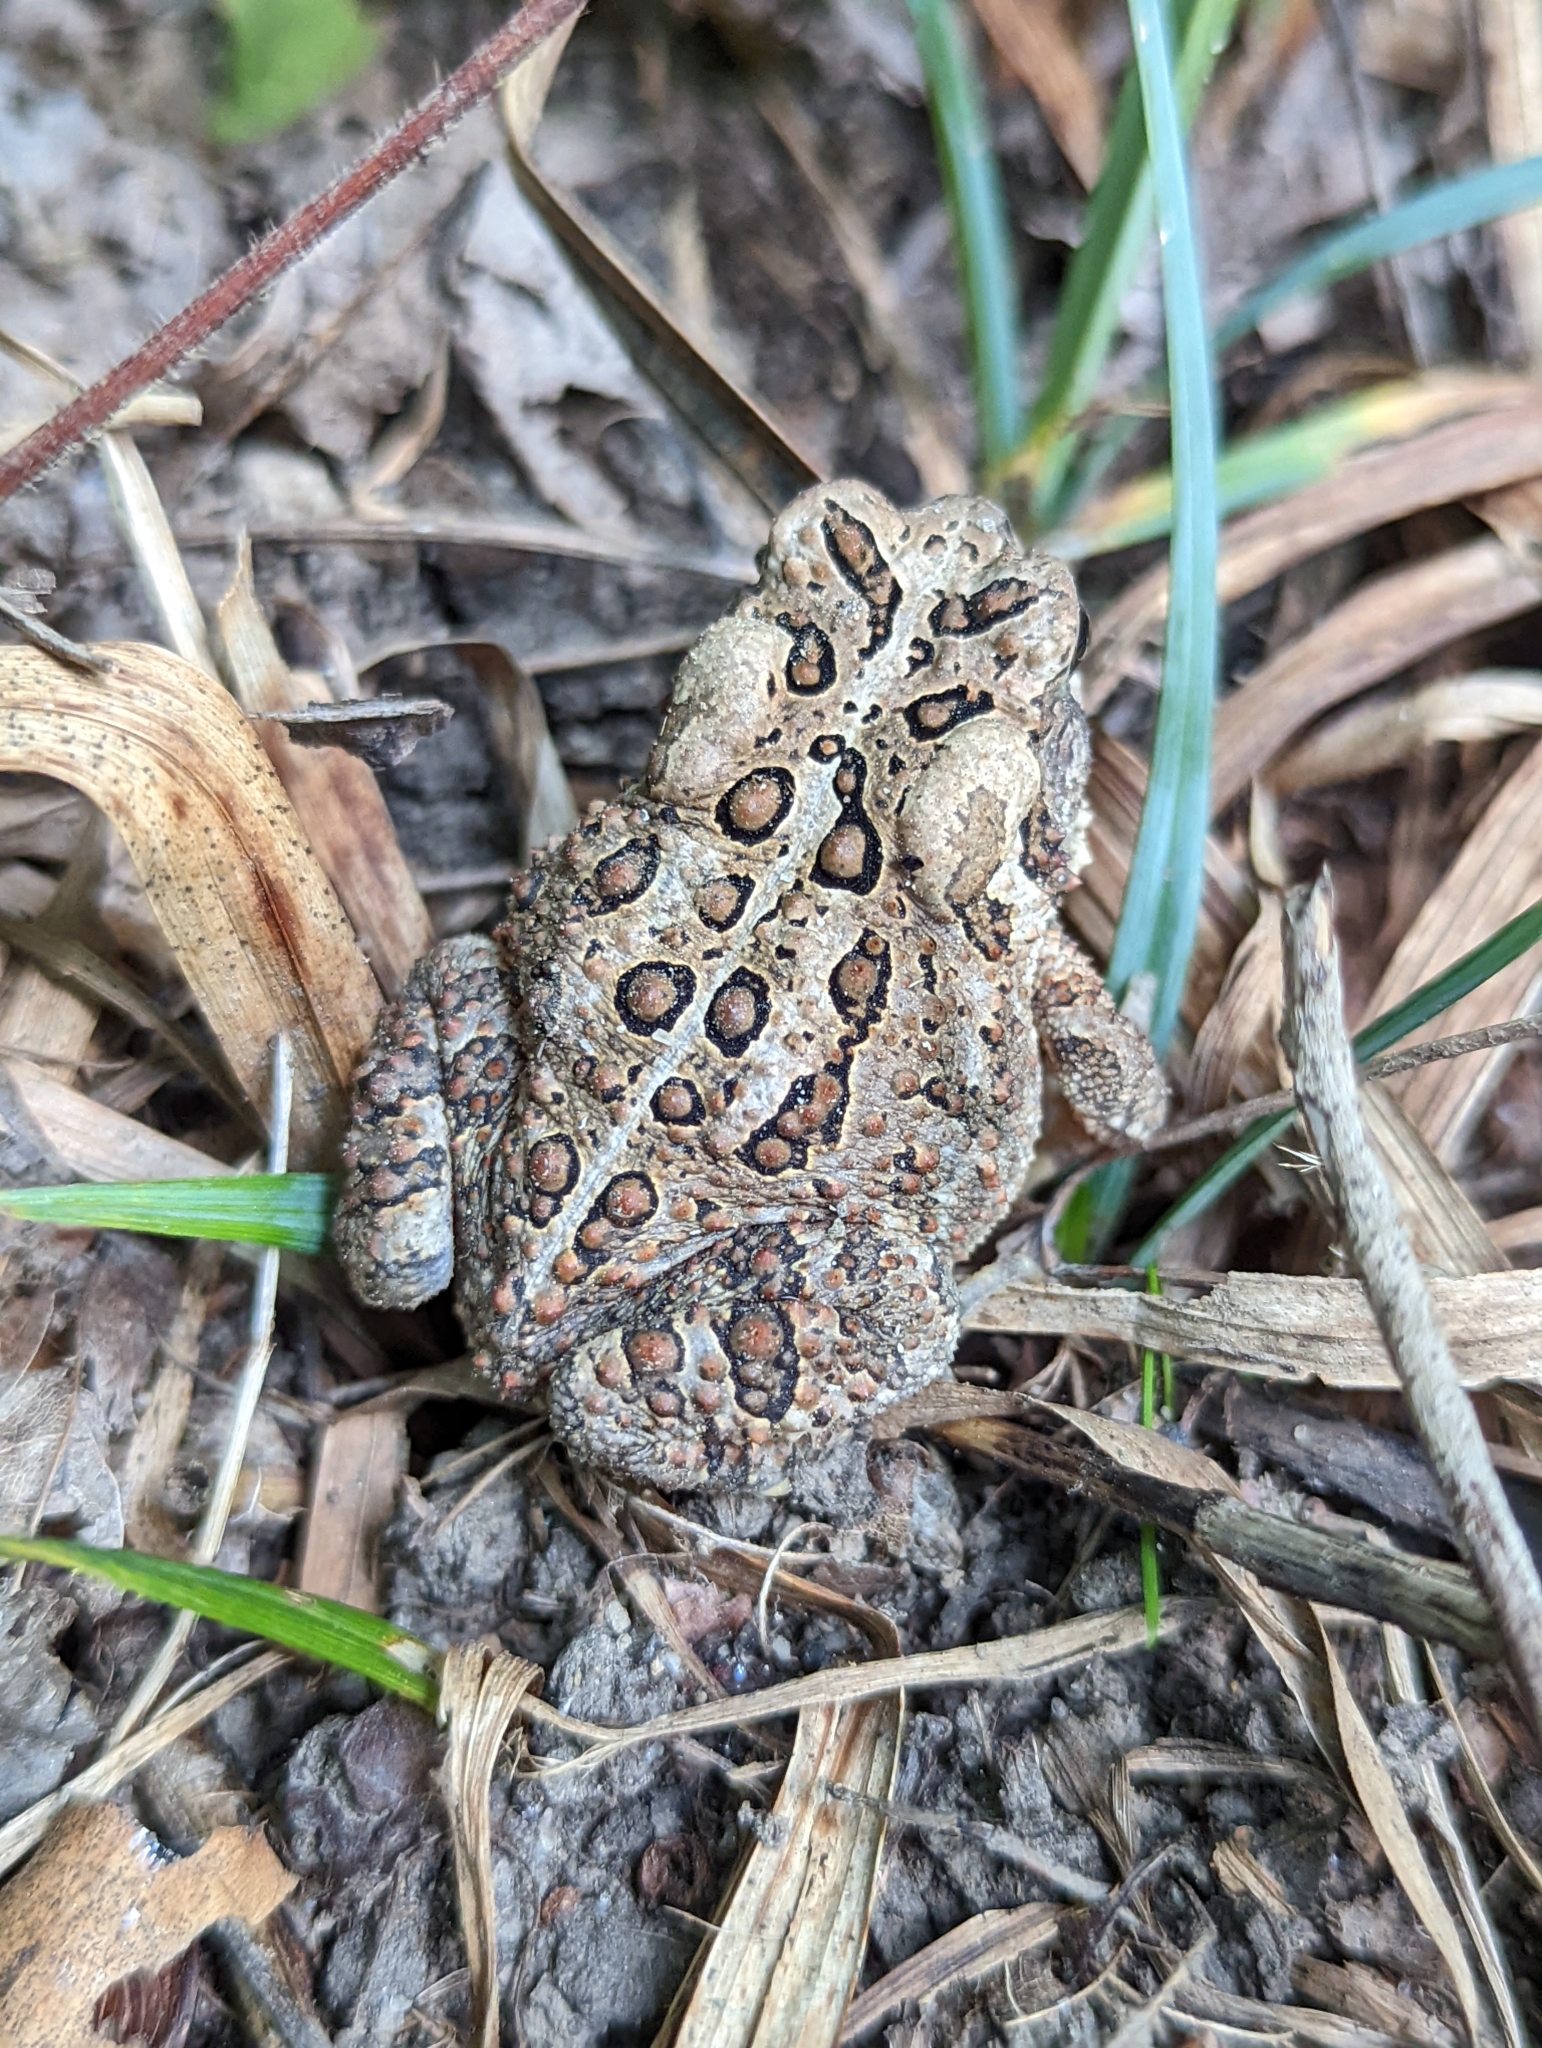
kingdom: Animalia
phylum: Chordata
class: Amphibia
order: Anura
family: Bufonidae
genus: Anaxyrus
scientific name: Anaxyrus americanus
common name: American toad
